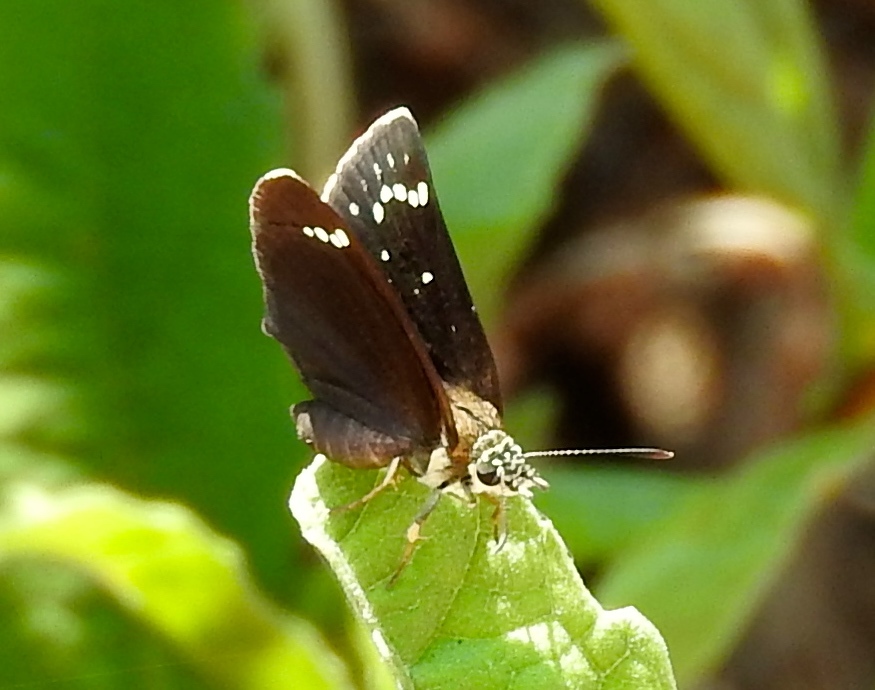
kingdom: Animalia
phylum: Arthropoda
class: Insecta
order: Lepidoptera
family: Hesperiidae
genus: Pholisora
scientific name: Pholisora
